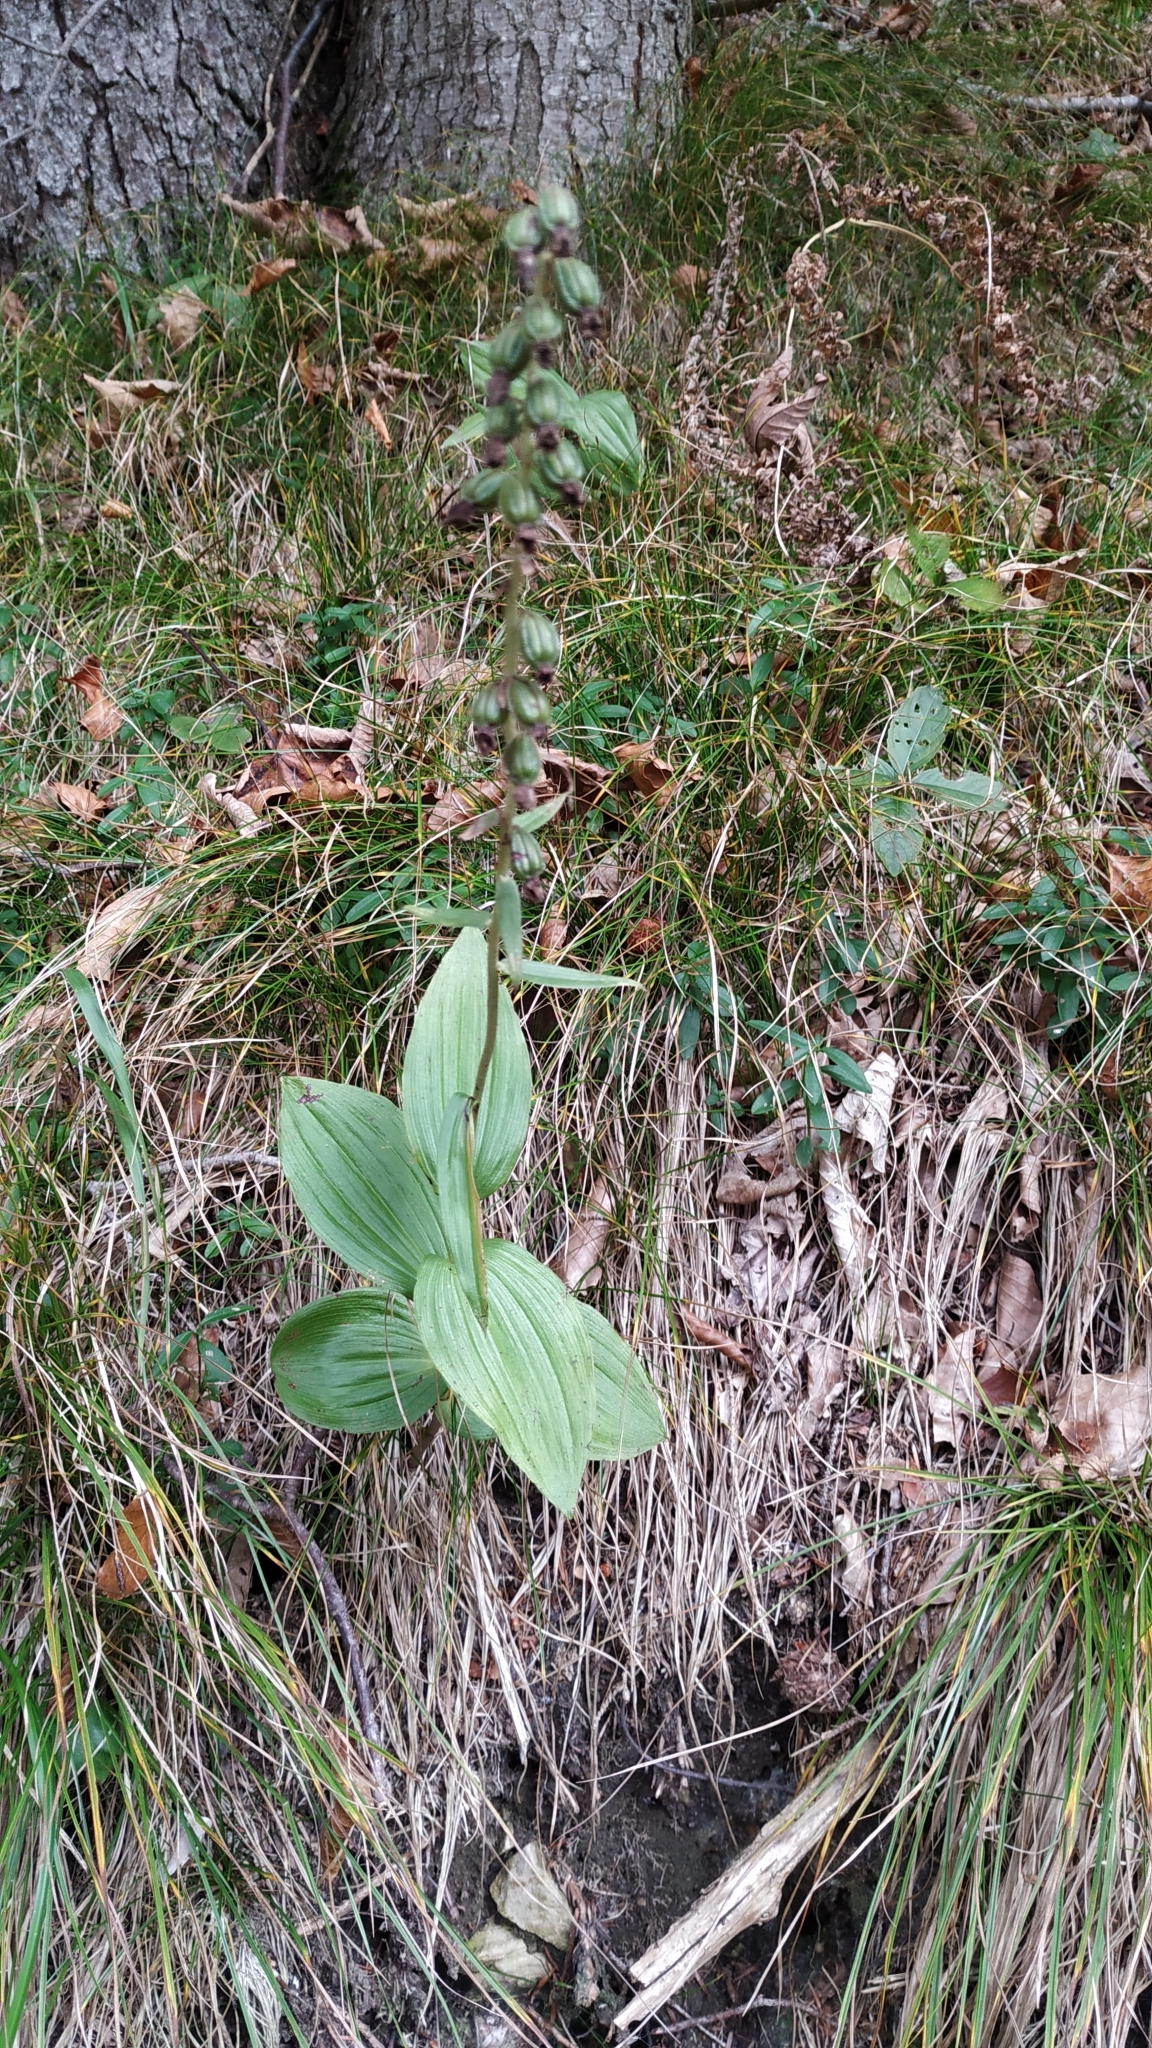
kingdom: Plantae
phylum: Tracheophyta
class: Liliopsida
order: Asparagales
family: Orchidaceae
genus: Epipactis
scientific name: Epipactis helleborine
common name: Broad-leaved helleborine
